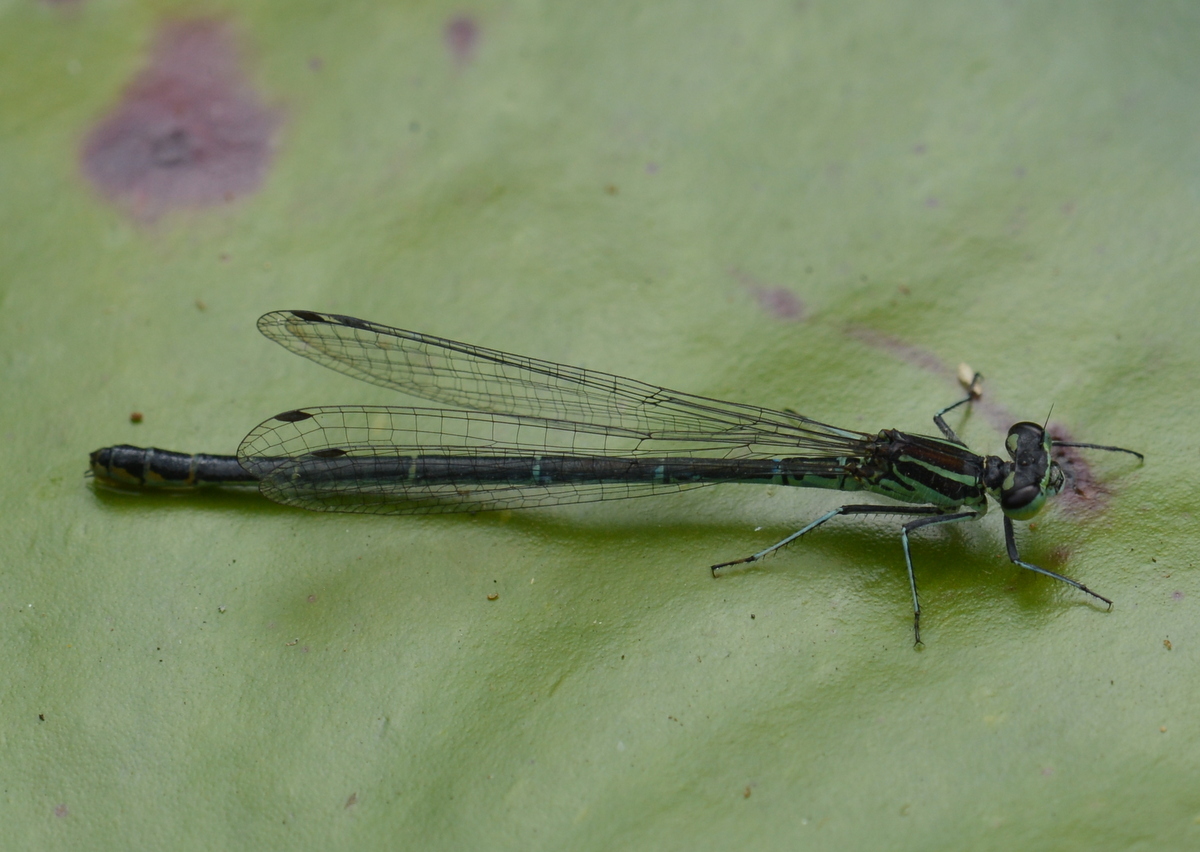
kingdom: Animalia
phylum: Arthropoda
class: Insecta
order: Odonata
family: Coenagrionidae
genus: Coenagrion
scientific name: Coenagrion puella
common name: Azure damselfly
